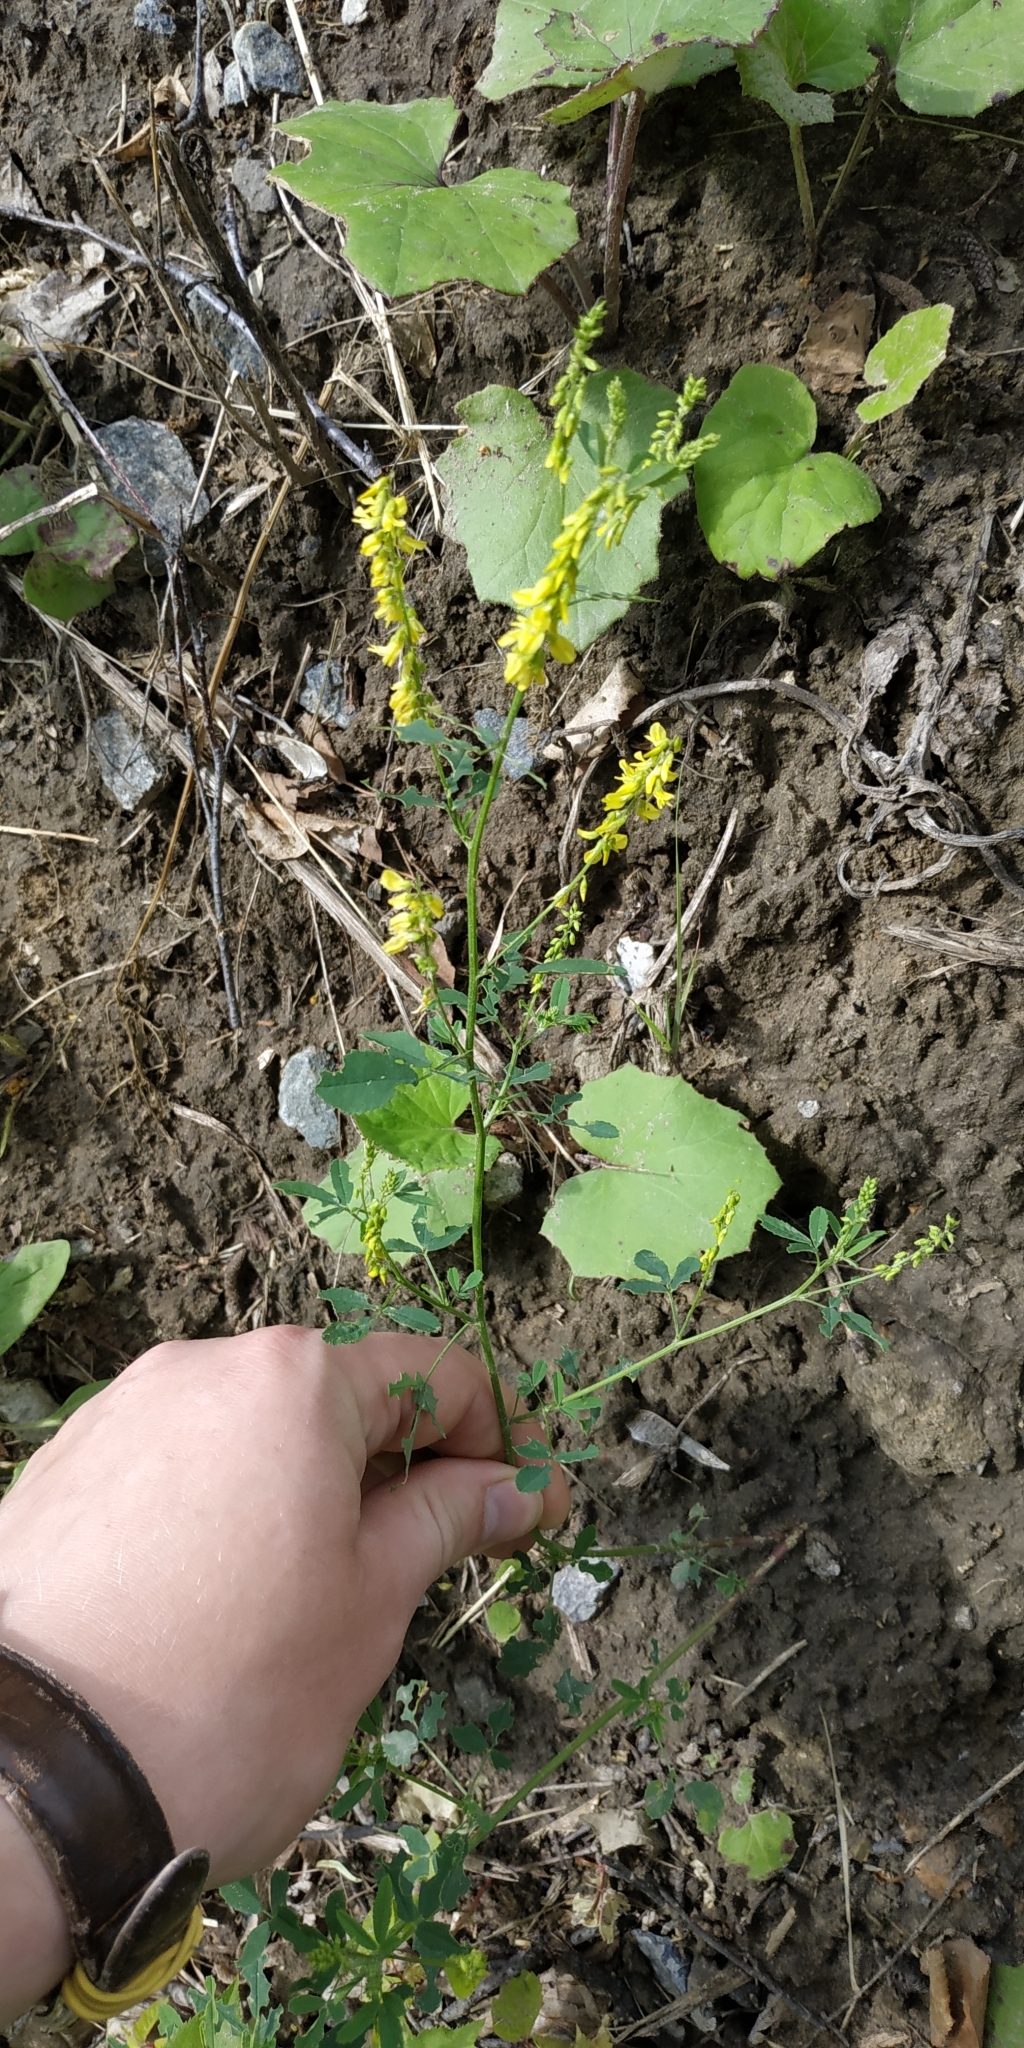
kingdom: Plantae
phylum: Tracheophyta
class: Magnoliopsida
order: Fabales
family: Fabaceae
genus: Melilotus
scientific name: Melilotus officinalis
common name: Sweetclover
